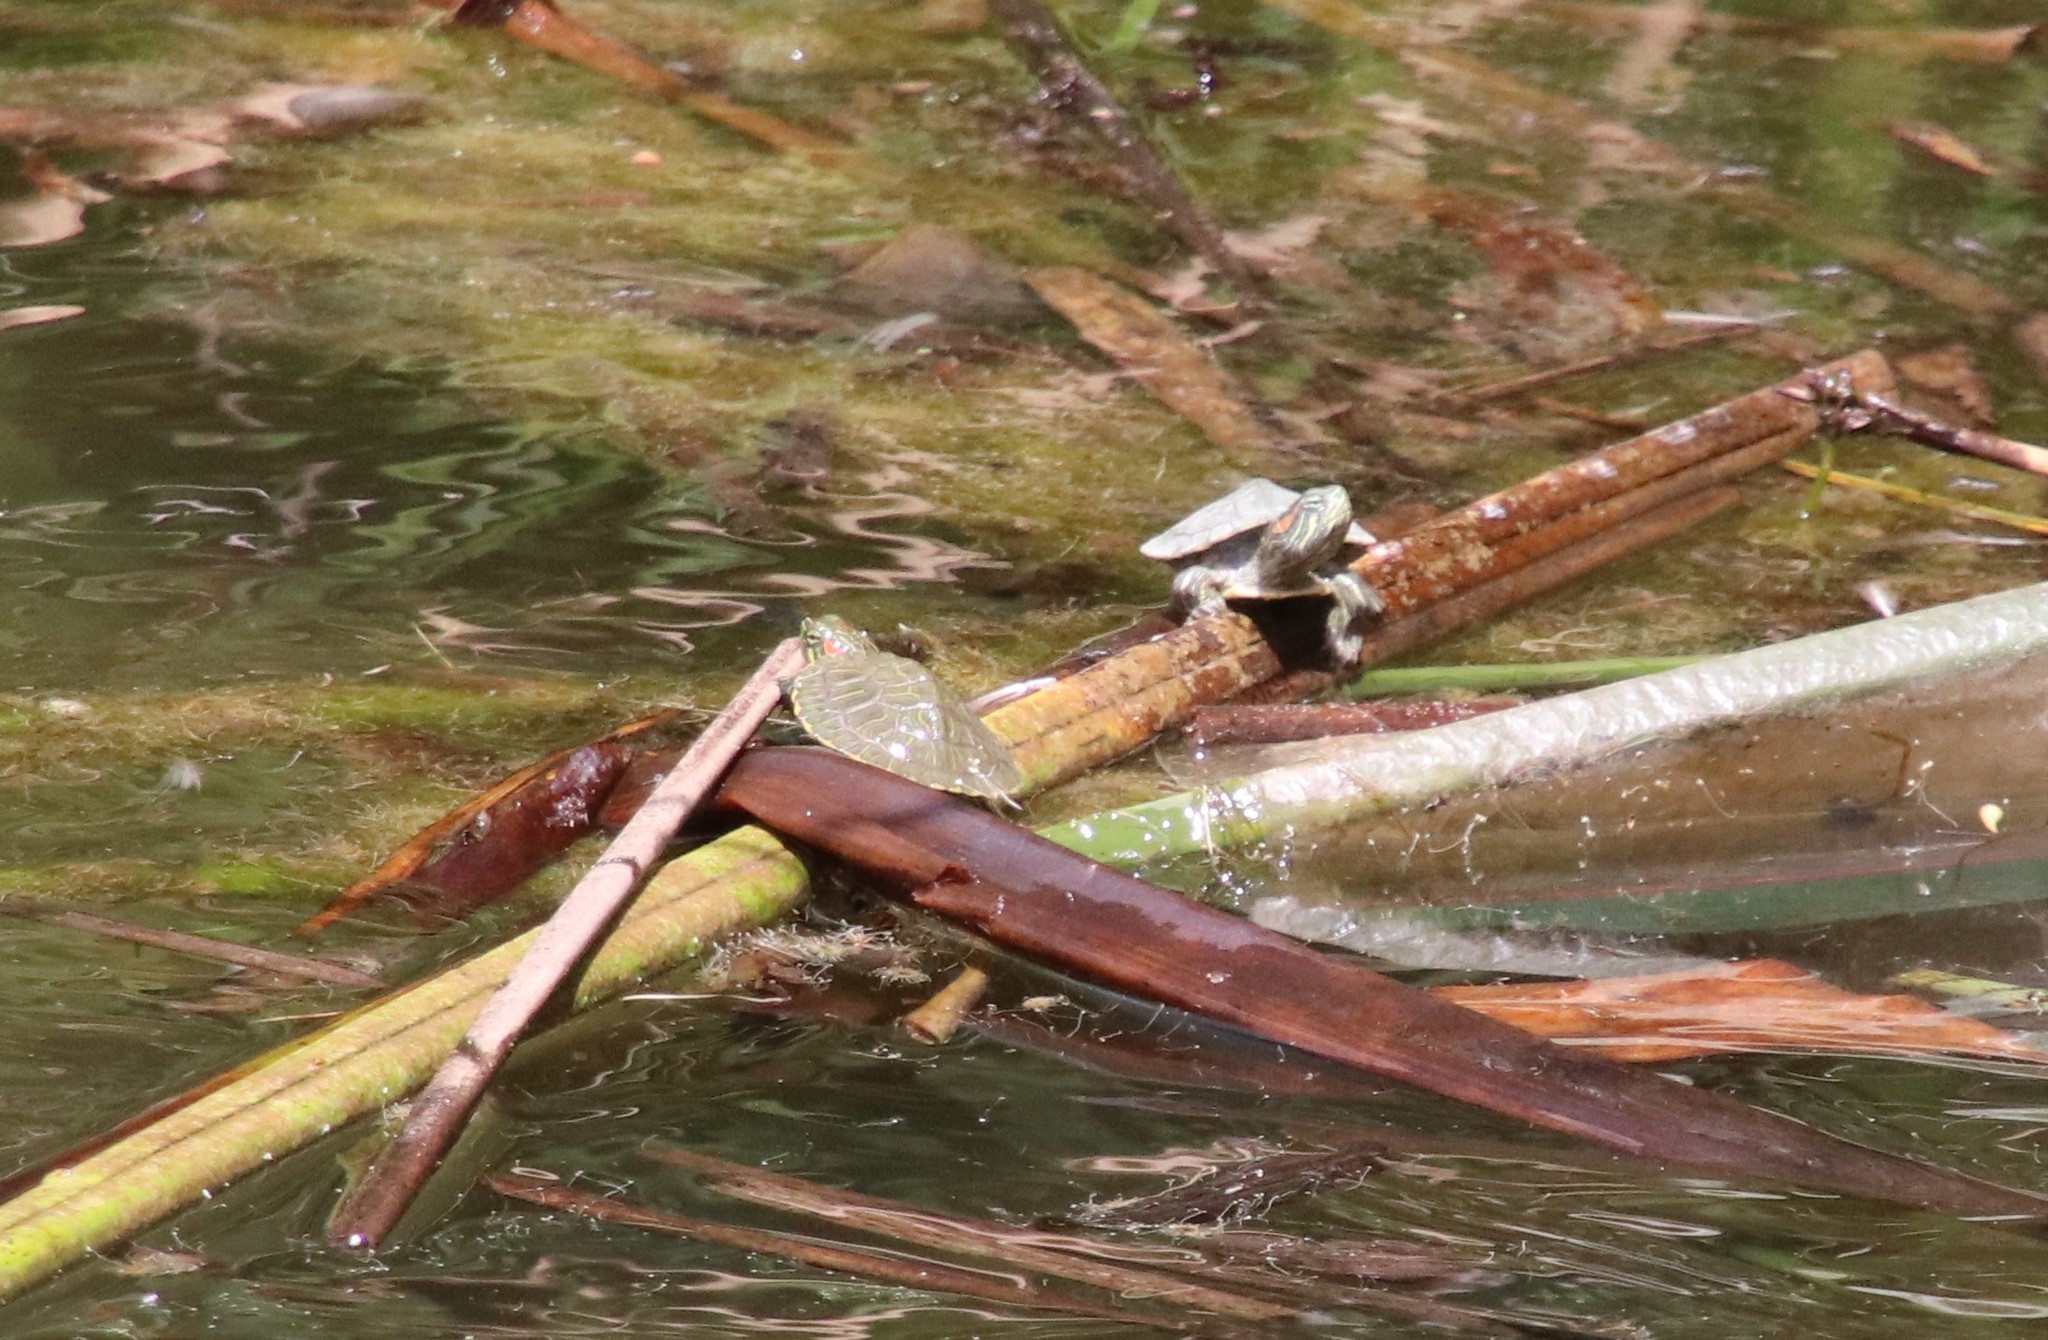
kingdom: Animalia
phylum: Chordata
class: Testudines
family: Emydidae
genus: Trachemys
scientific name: Trachemys scripta
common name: Slider
